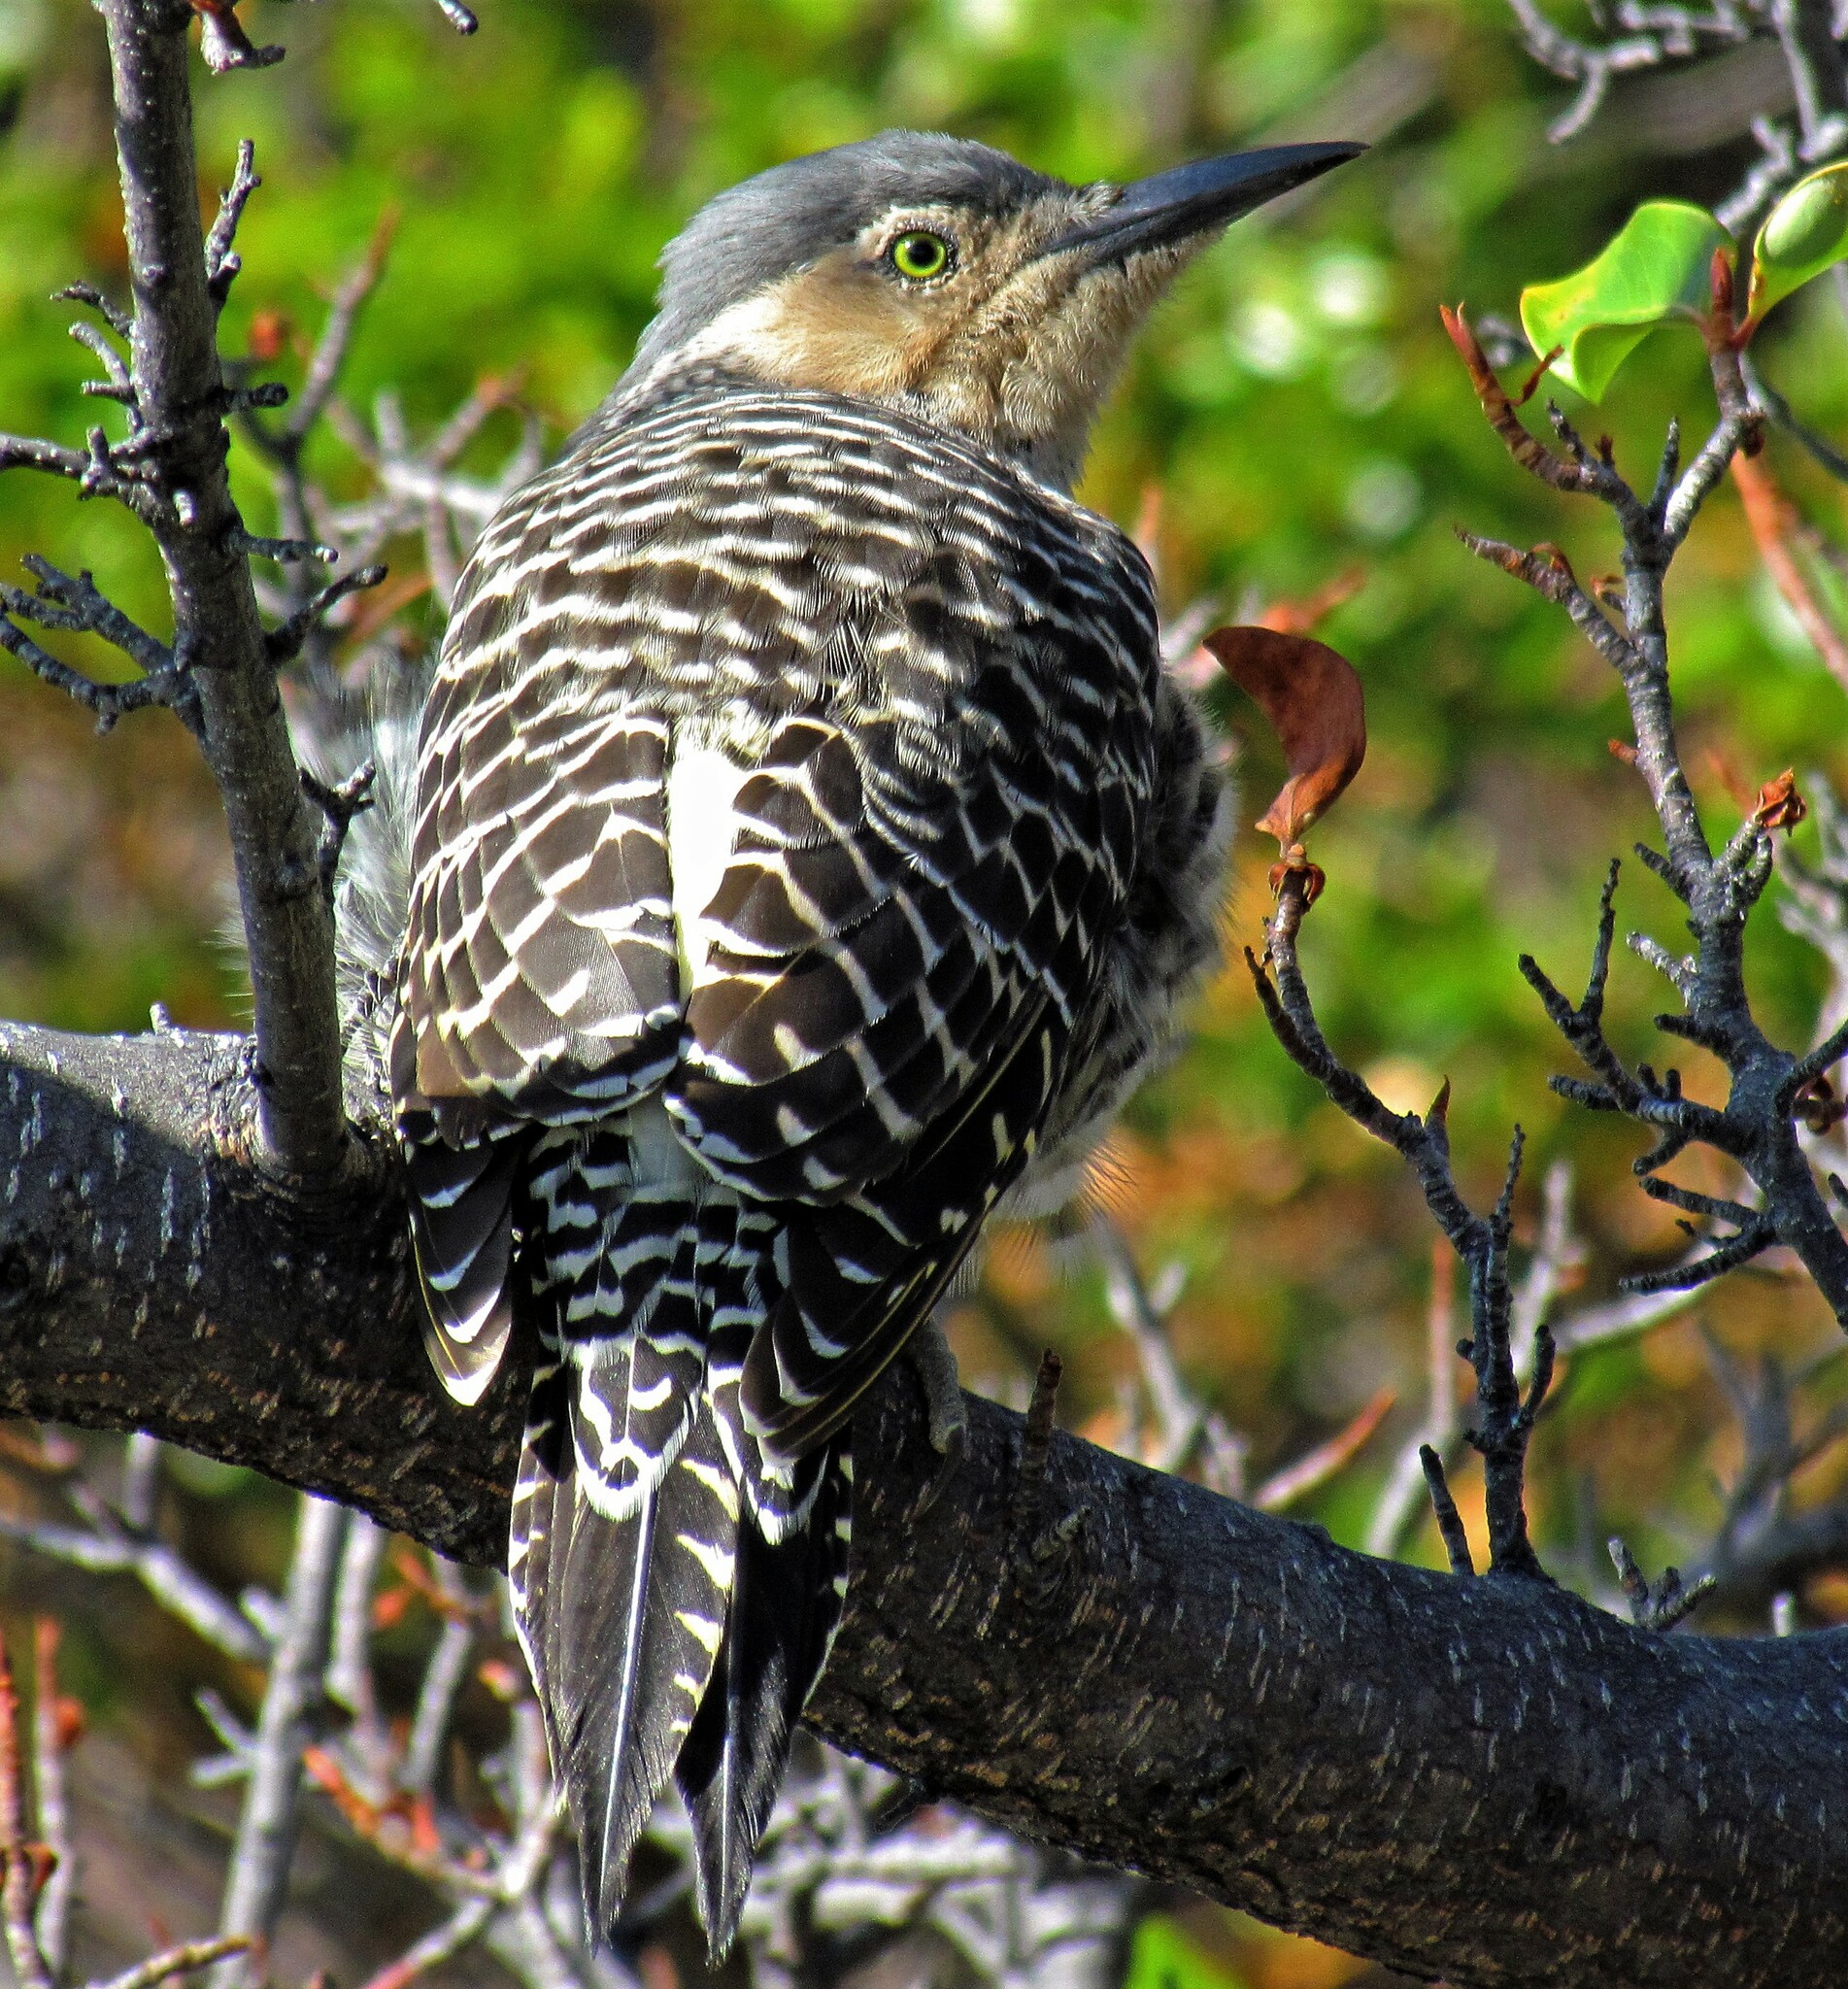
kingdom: Animalia
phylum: Chordata
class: Aves
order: Piciformes
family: Picidae
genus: Colaptes
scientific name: Colaptes pitius
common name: Chilean flicker
